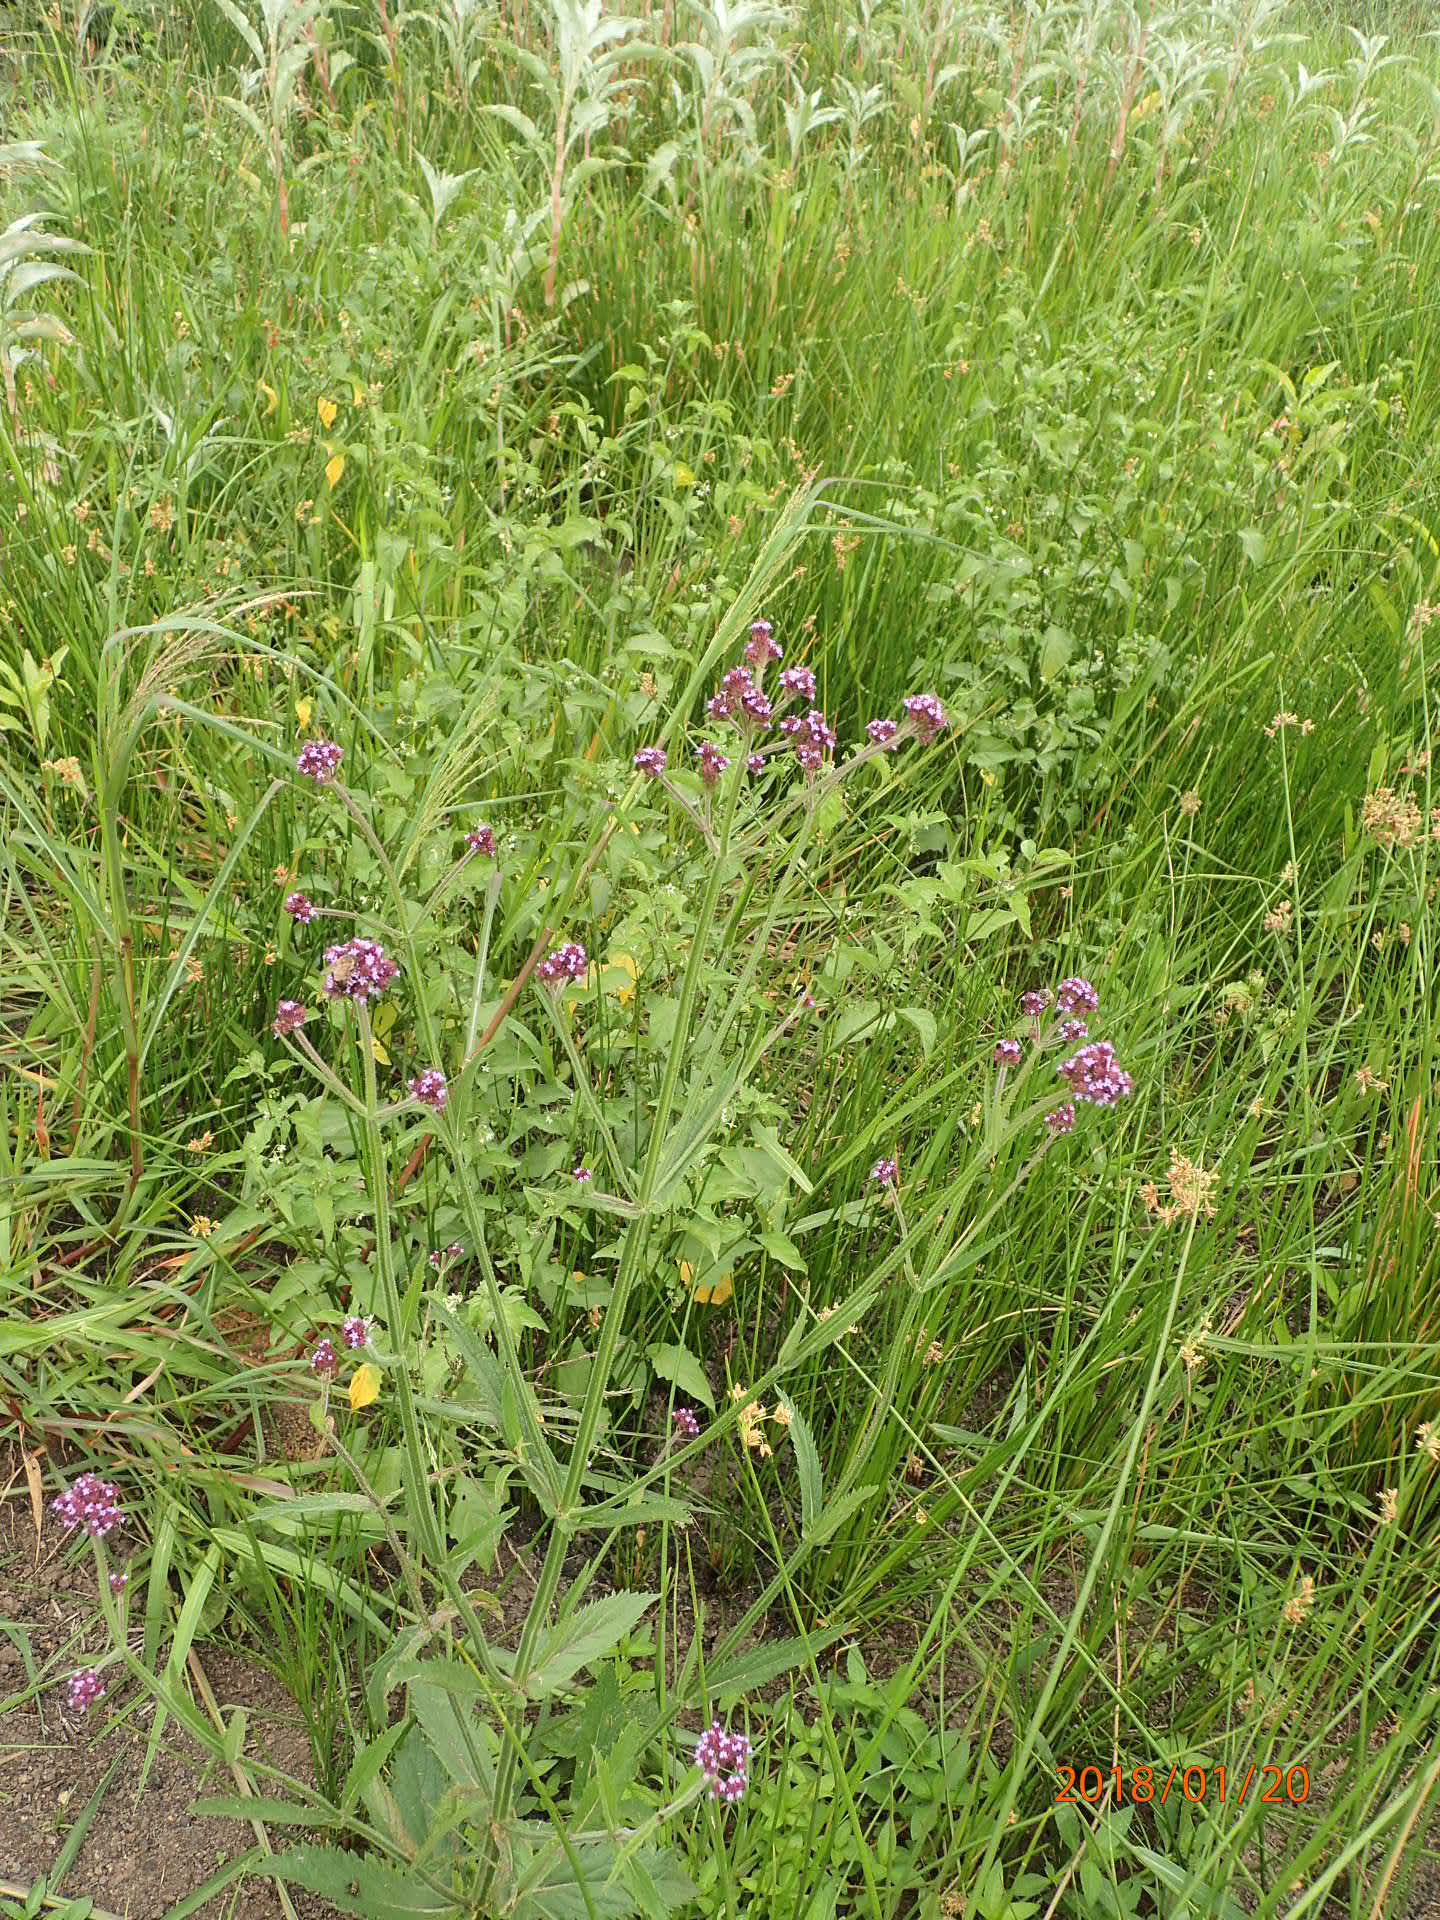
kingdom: Plantae
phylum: Tracheophyta
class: Magnoliopsida
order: Asterales
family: Asteraceae
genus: Blumea
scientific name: Blumea axillaris
